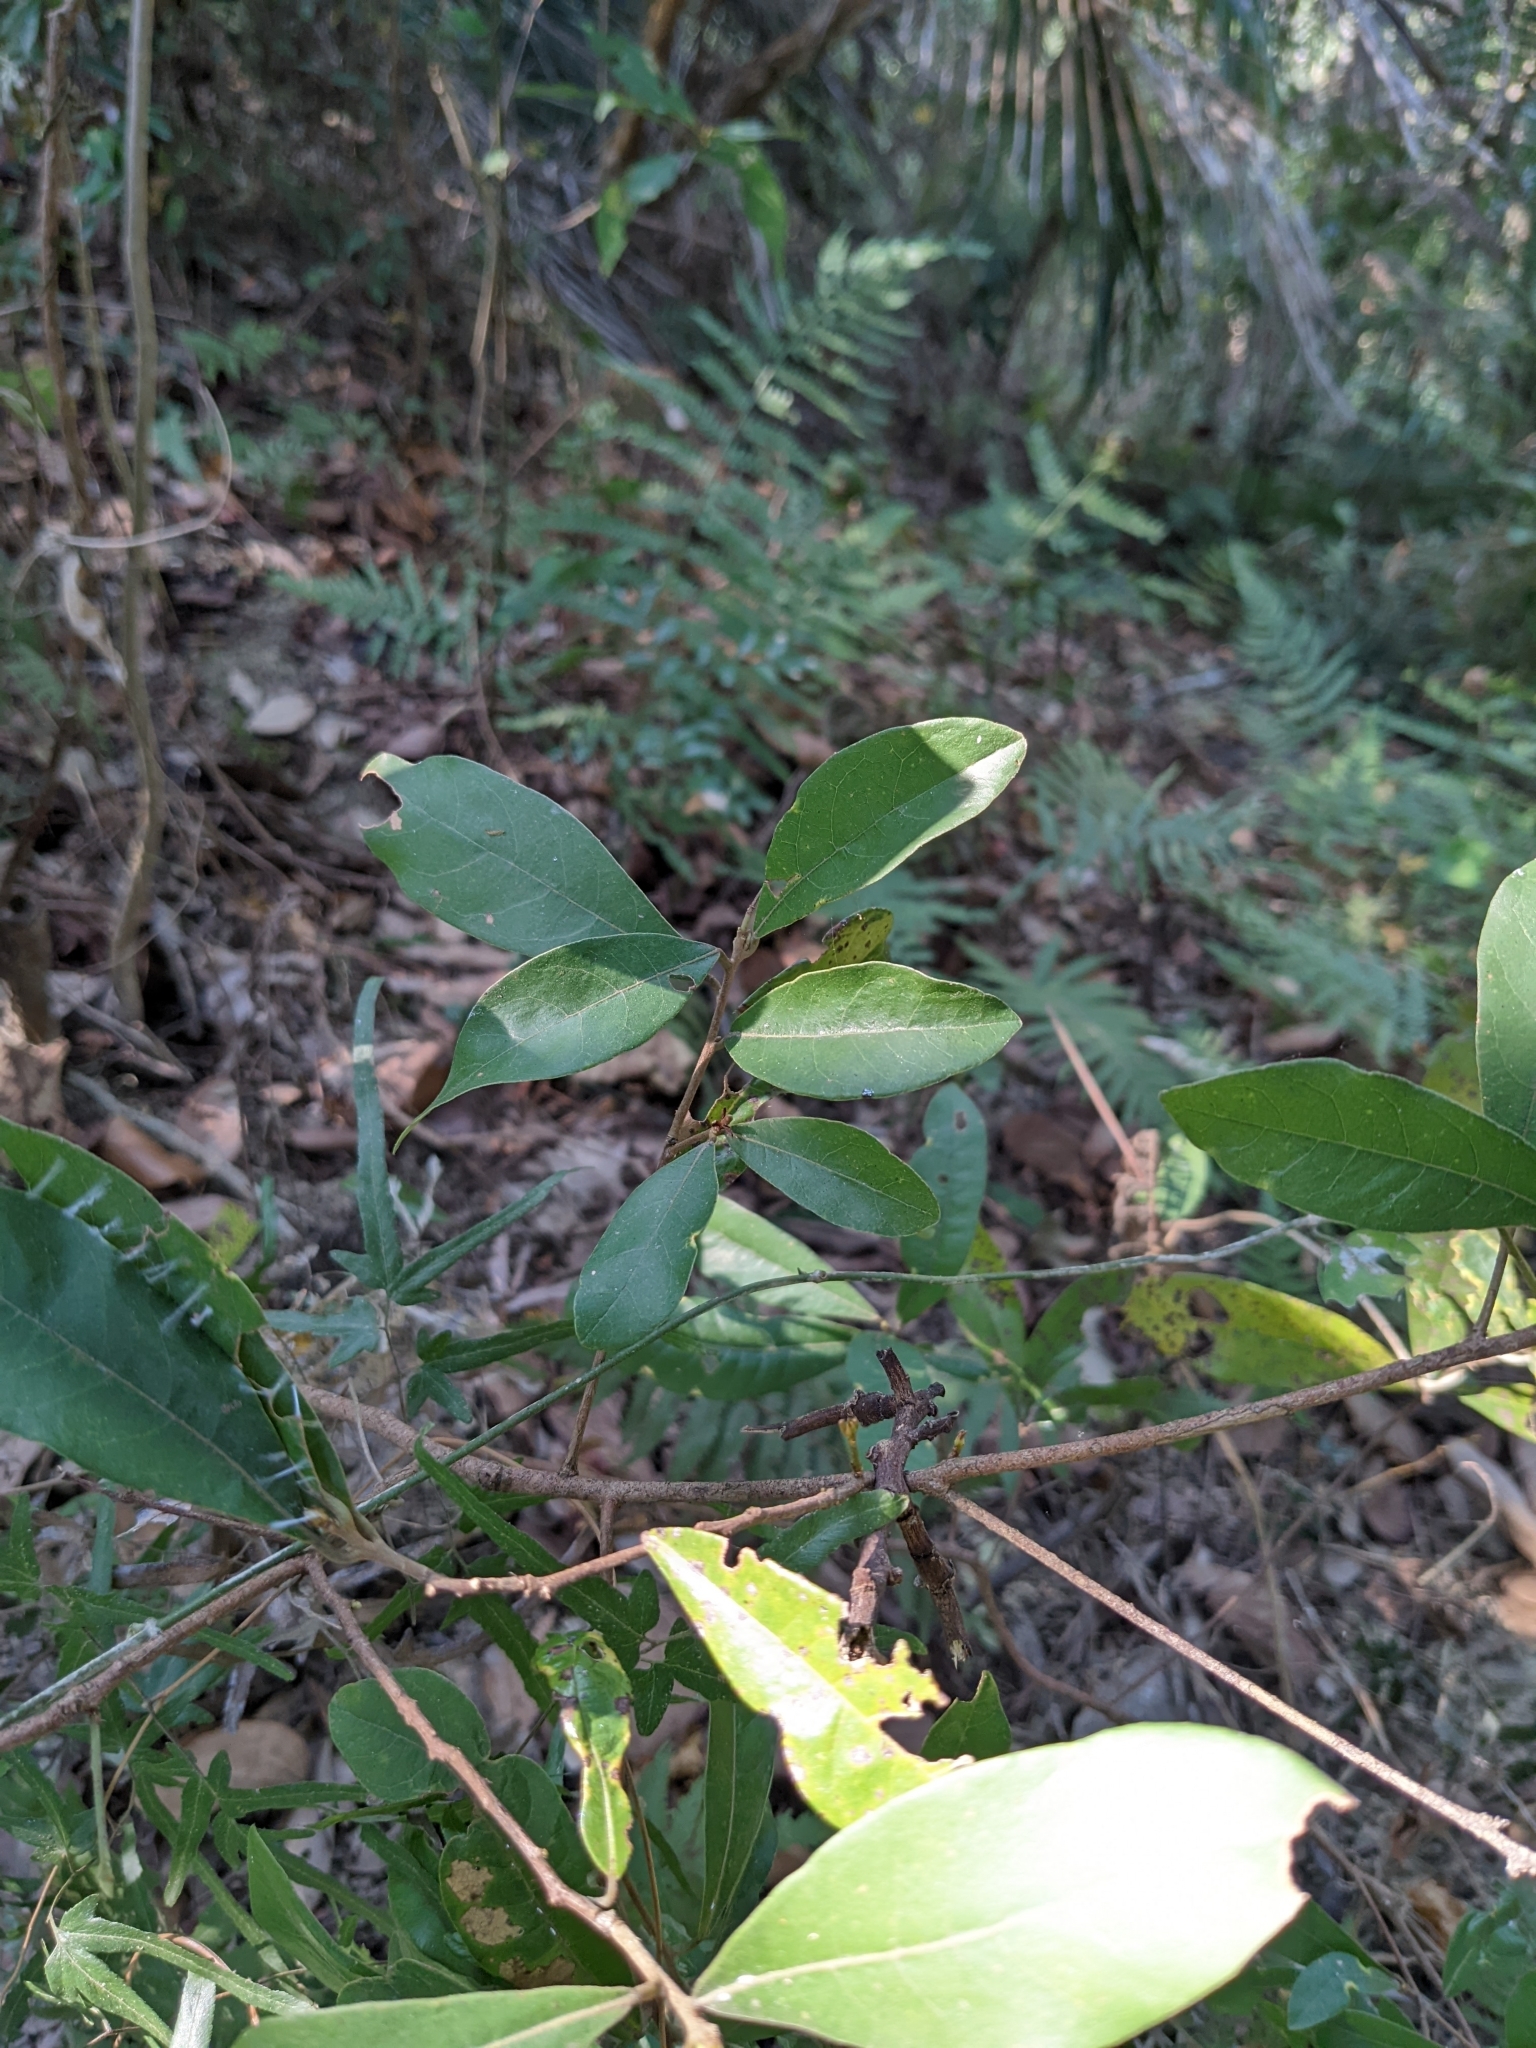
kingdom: Plantae
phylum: Tracheophyta
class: Magnoliopsida
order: Laurales
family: Lauraceae
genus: Litsea
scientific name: Litsea hypophaea
